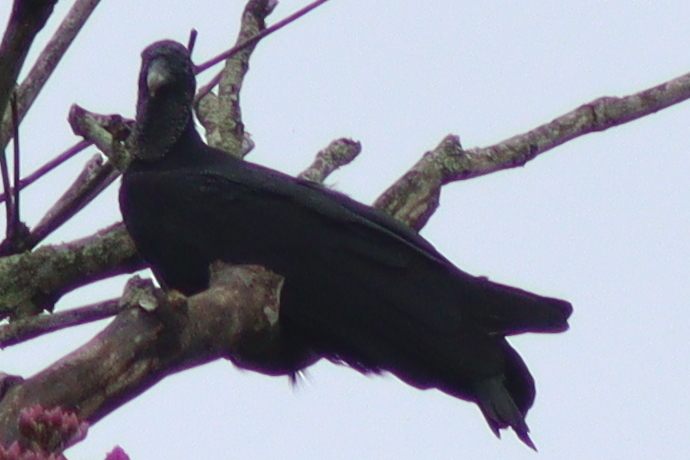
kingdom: Animalia
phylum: Chordata
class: Aves
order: Accipitriformes
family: Cathartidae
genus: Coragyps
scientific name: Coragyps atratus
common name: Black vulture
